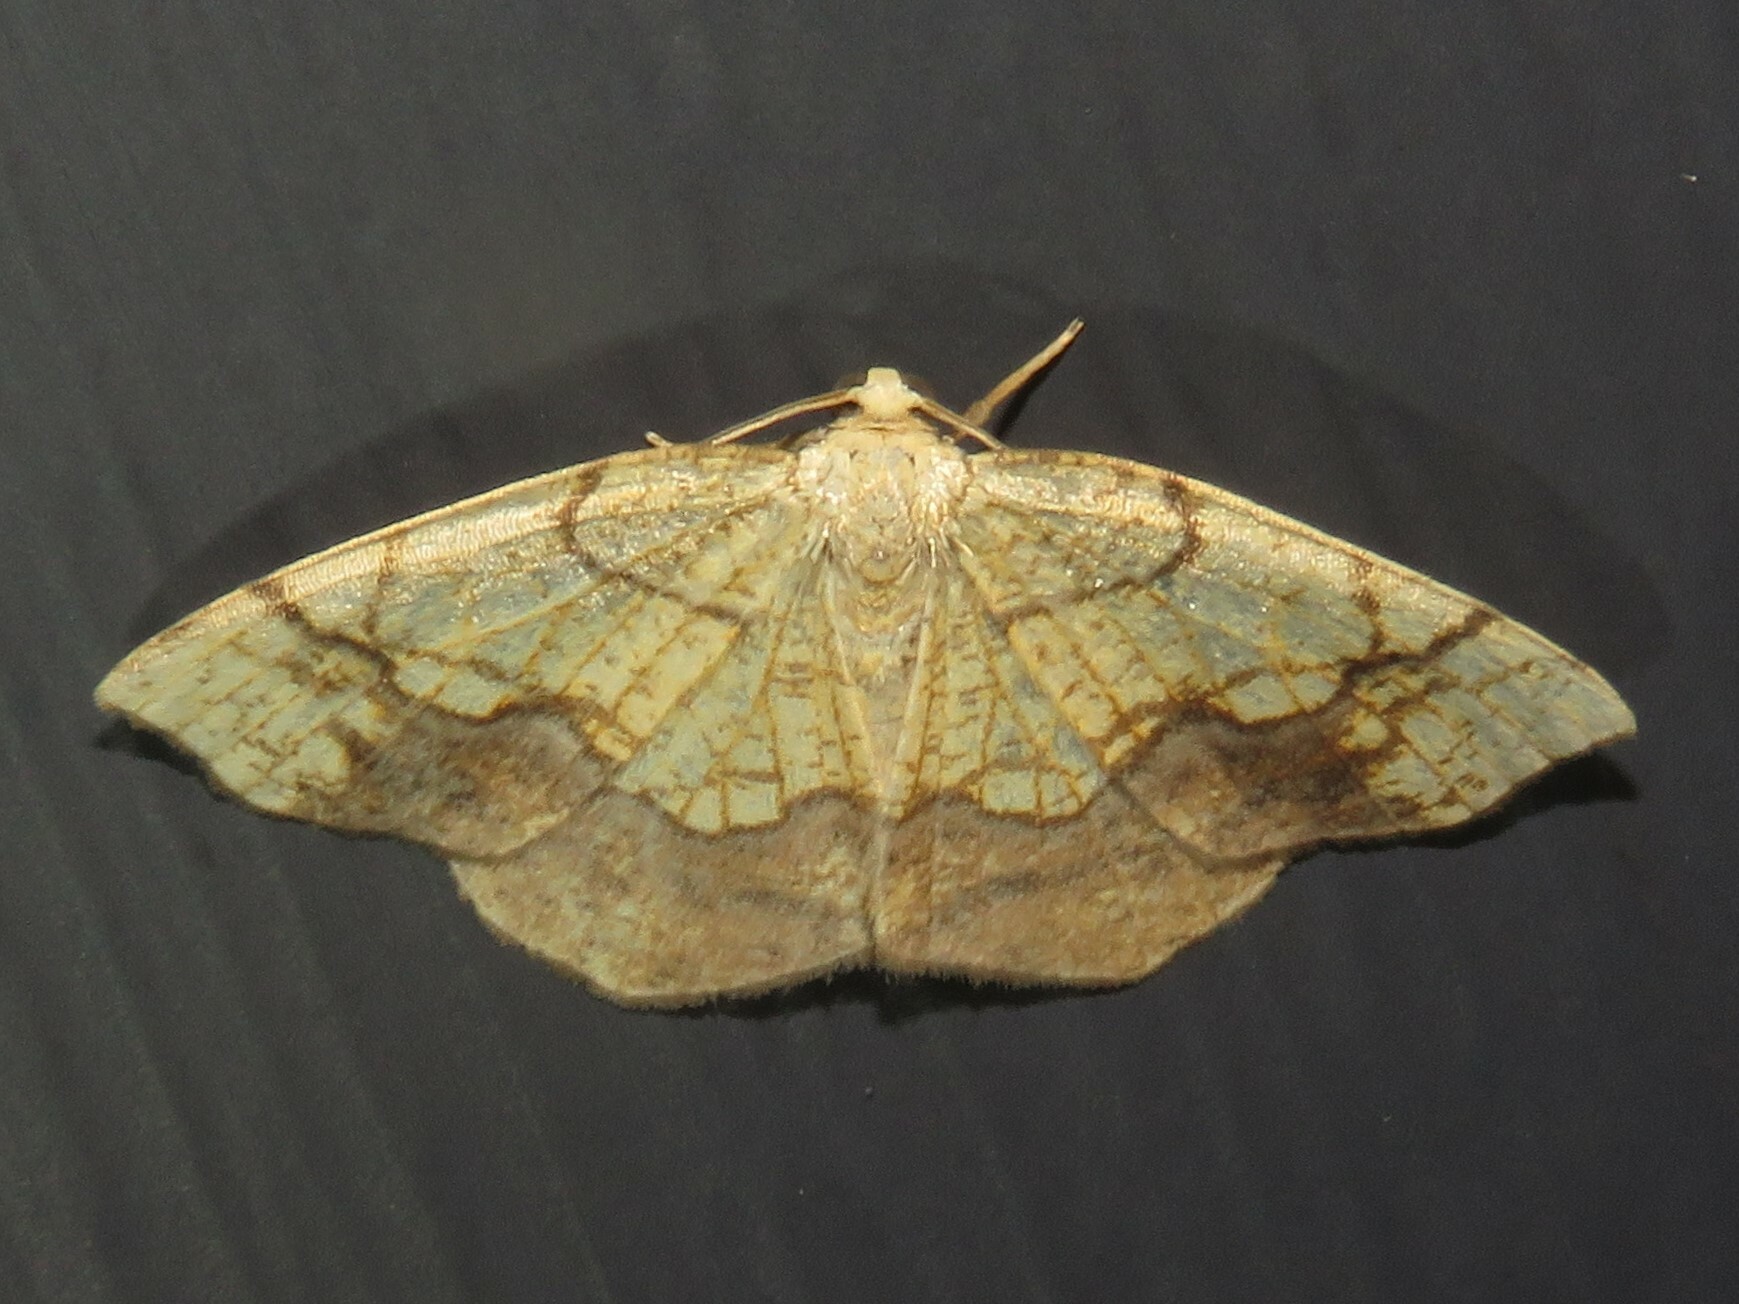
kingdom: Animalia
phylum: Arthropoda
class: Insecta
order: Lepidoptera
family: Geometridae
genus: Nematocampa
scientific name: Nematocampa resistaria
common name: Horned spanworm moth
